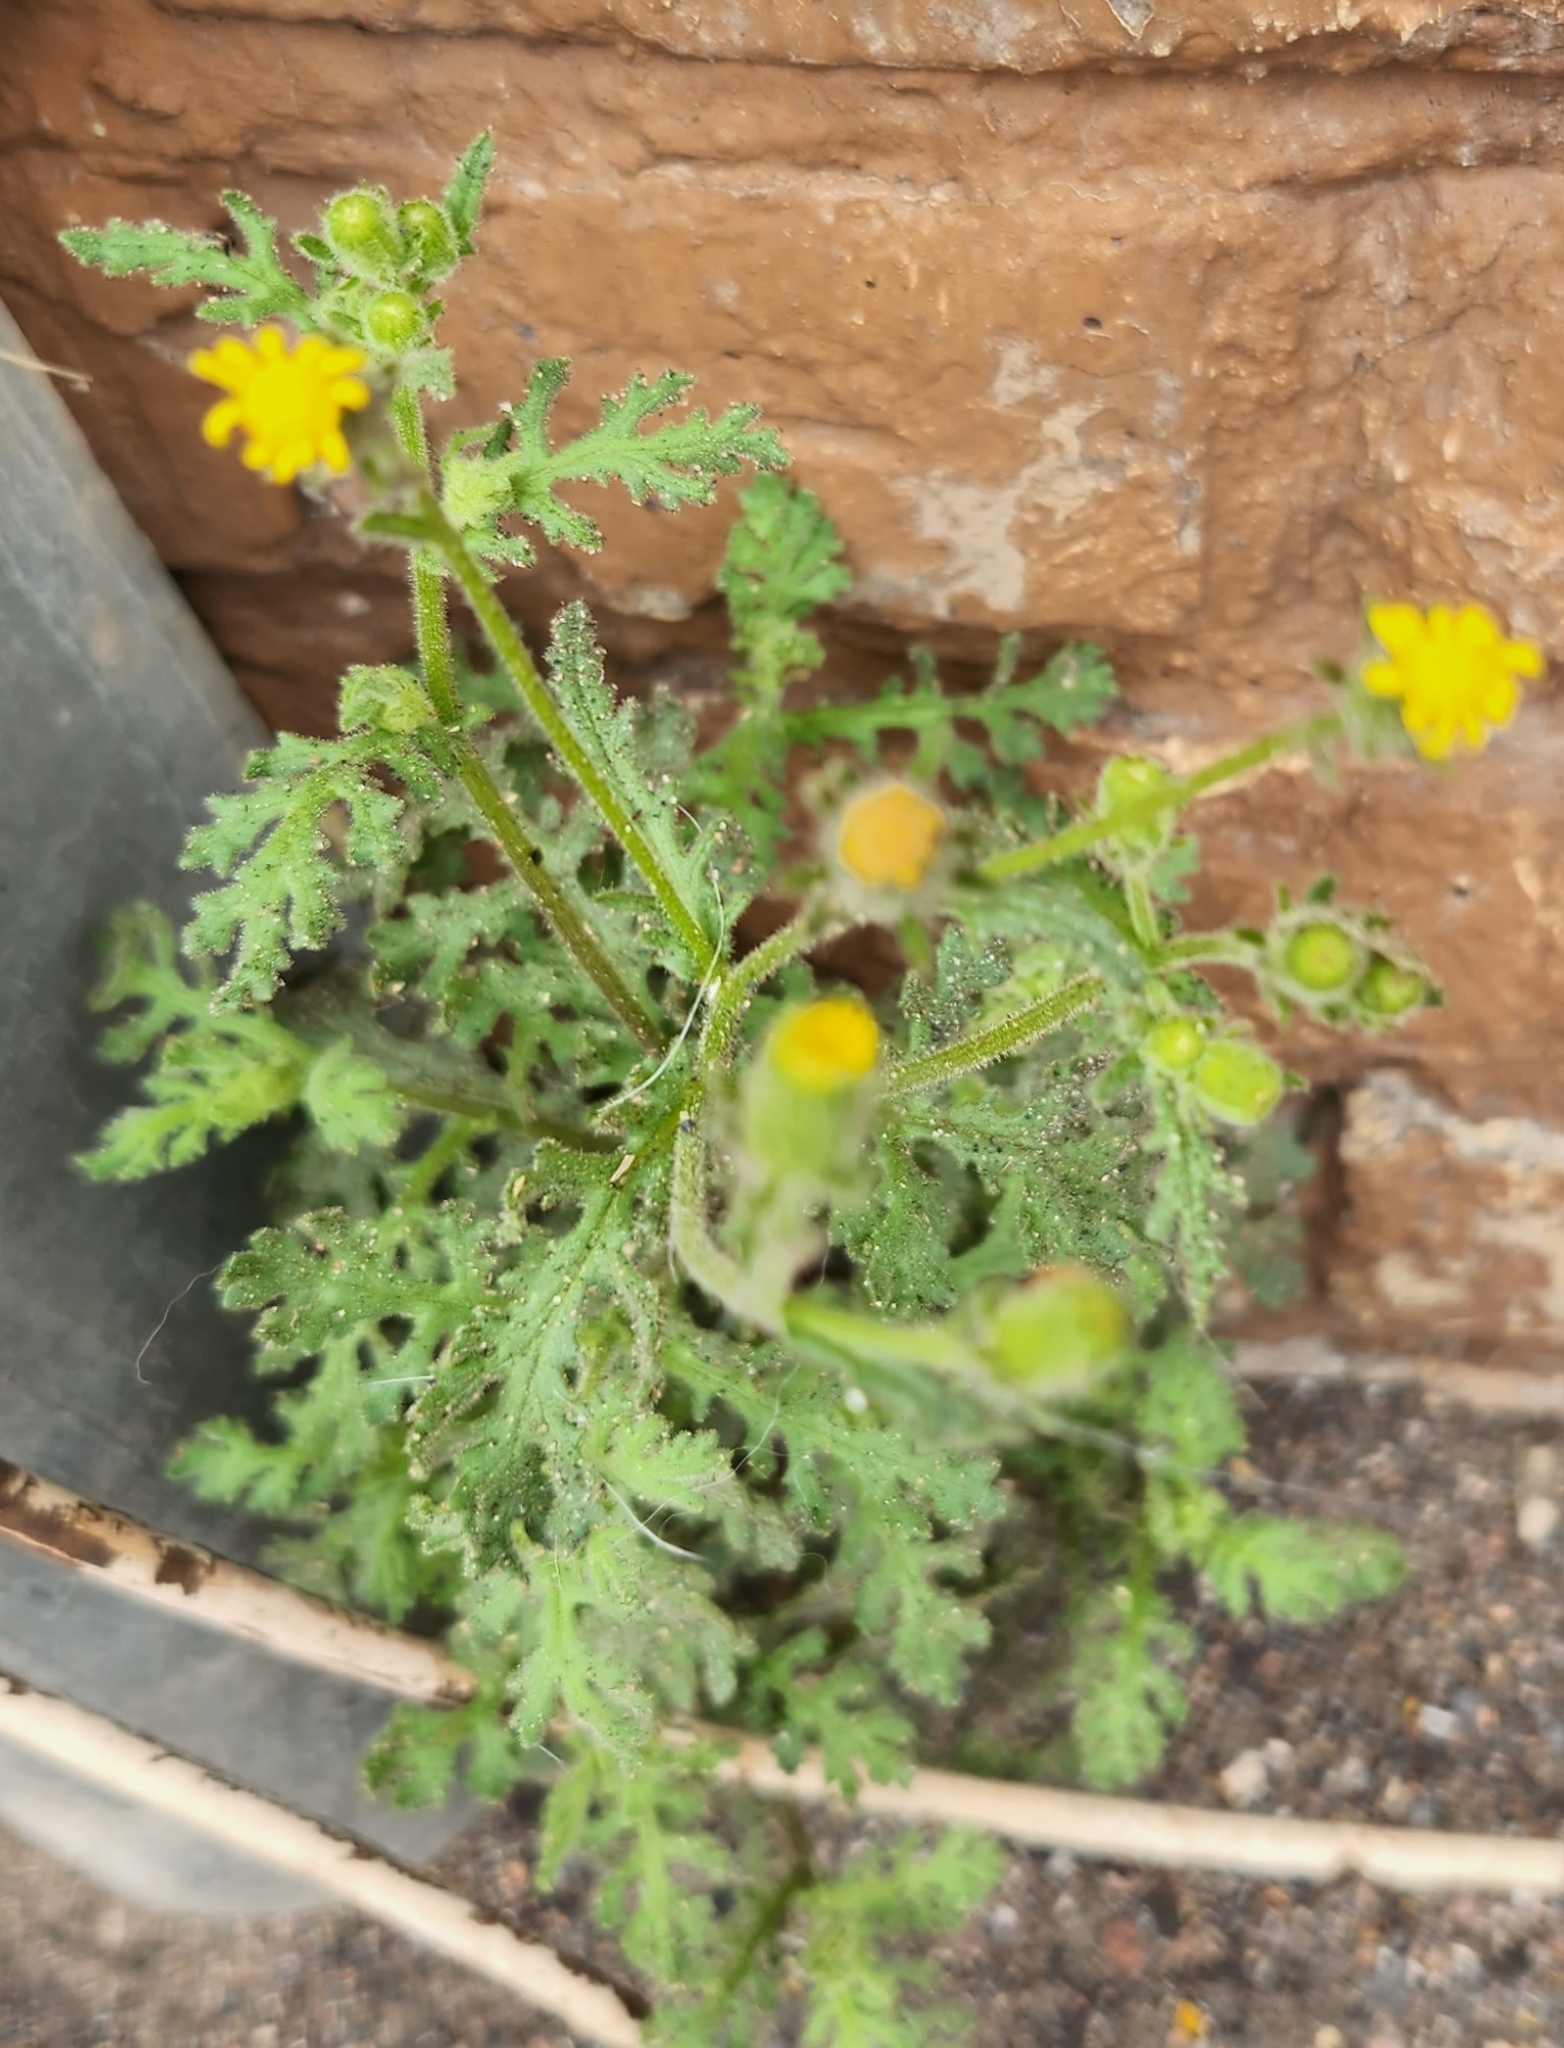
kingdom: Plantae
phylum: Tracheophyta
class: Magnoliopsida
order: Asterales
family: Asteraceae
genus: Senecio
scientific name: Senecio viscosus
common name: Sticky groundsel
